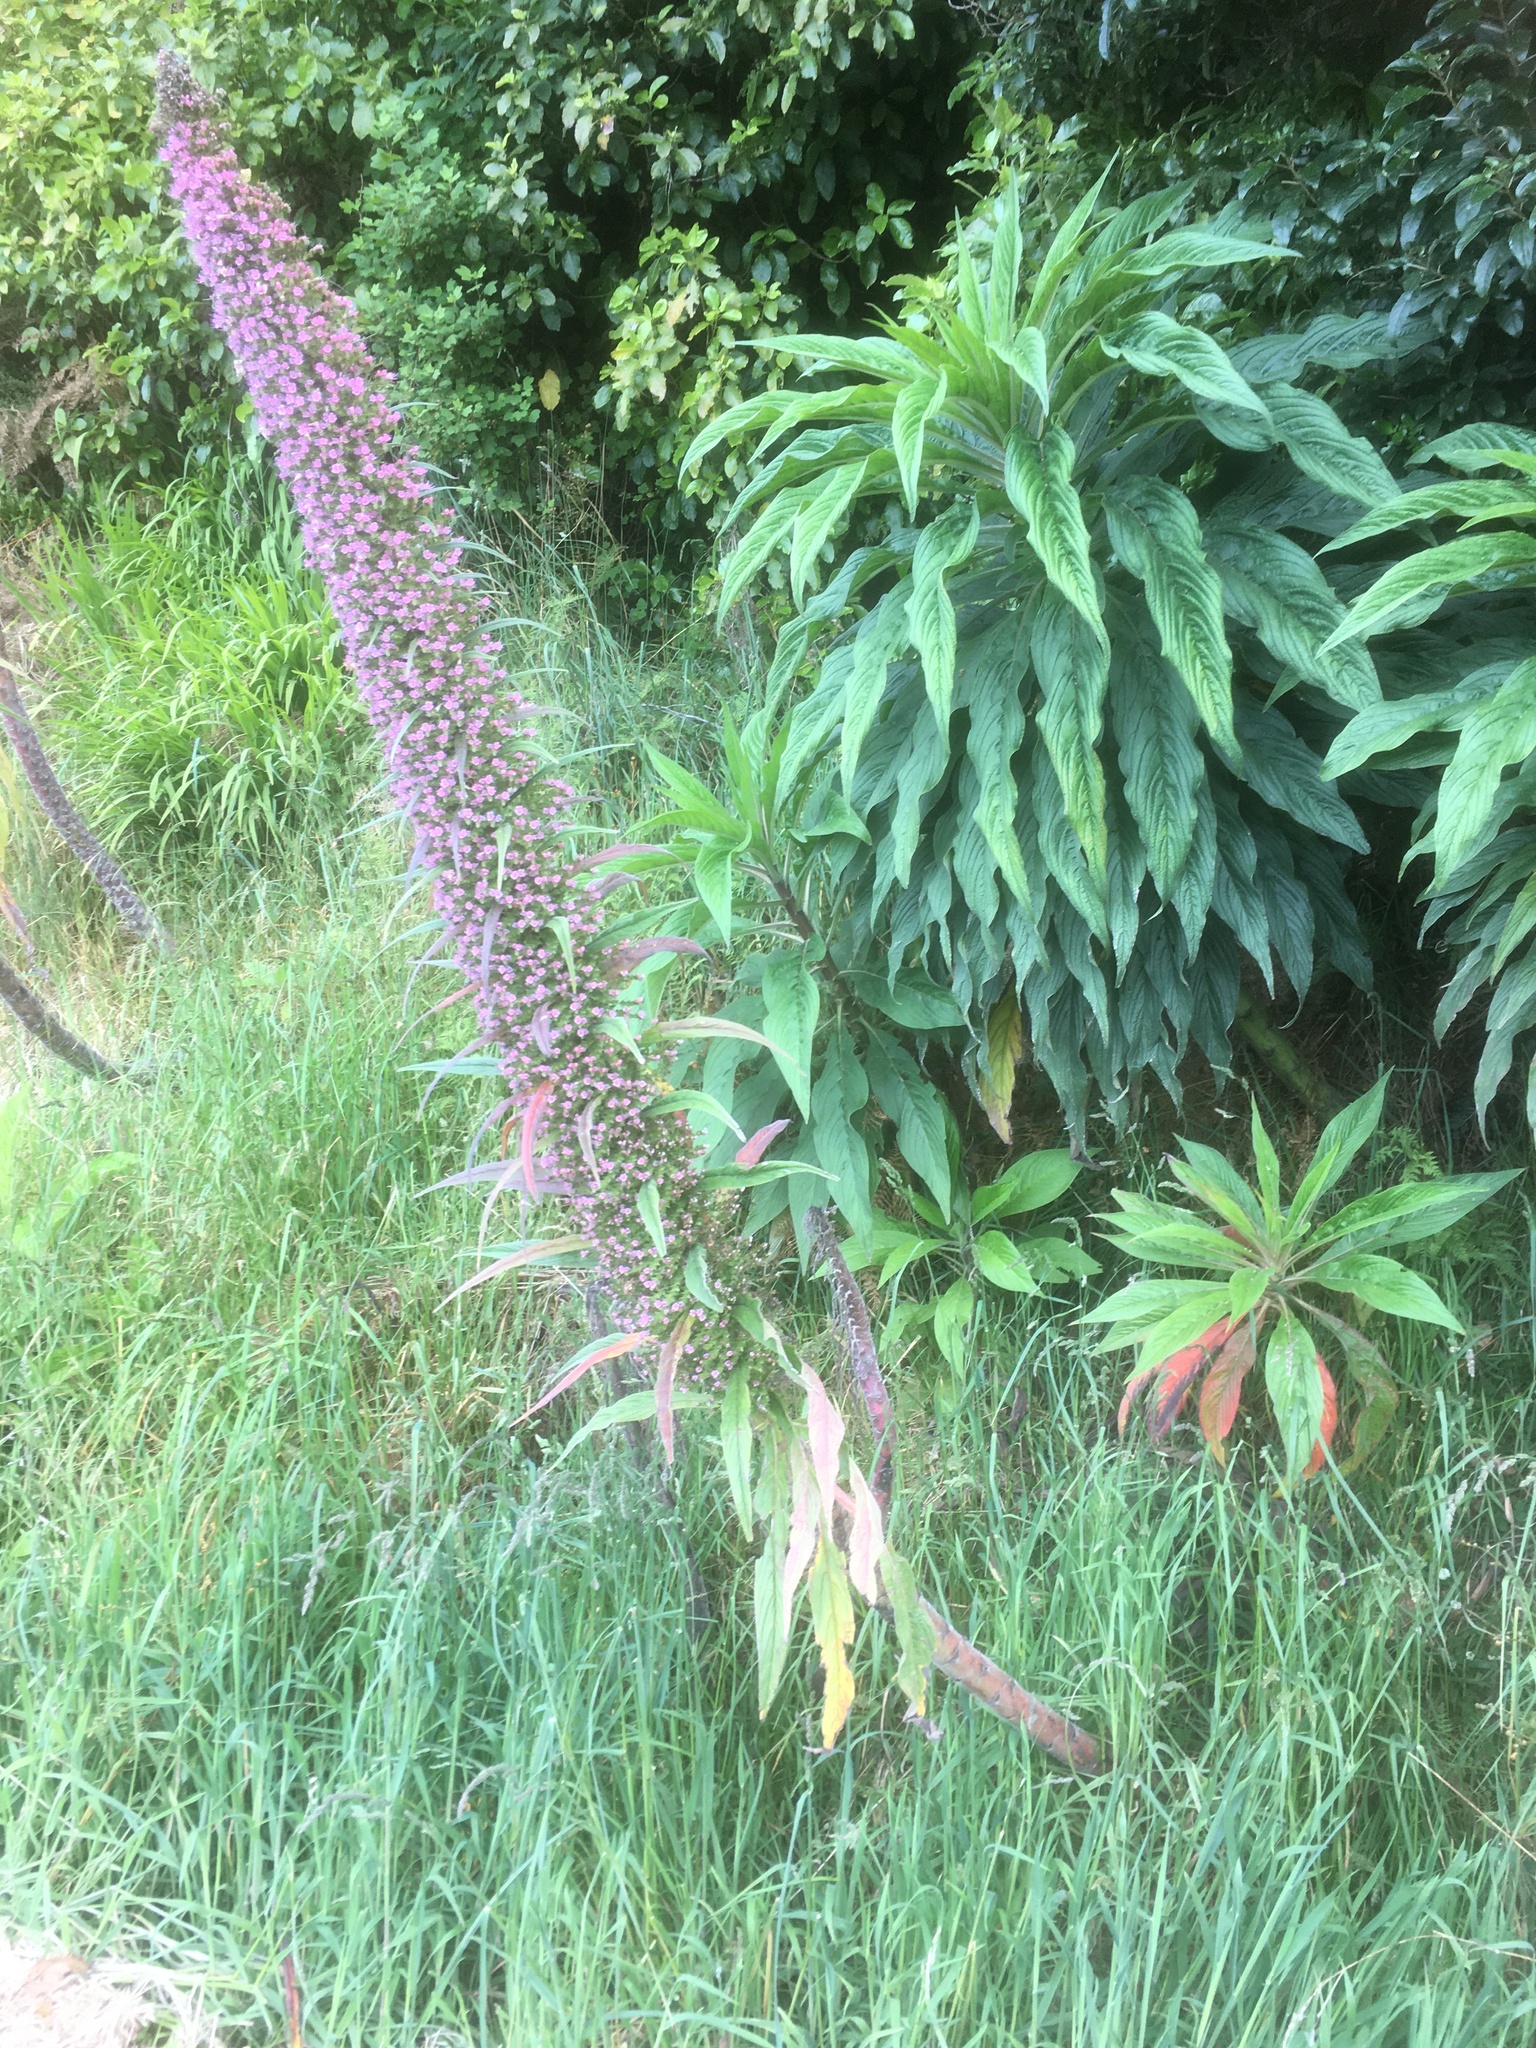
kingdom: Plantae
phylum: Tracheophyta
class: Magnoliopsida
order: Boraginales
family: Boraginaceae
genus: Echium
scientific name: Echium pininana
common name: Giant viper's-bugloss
